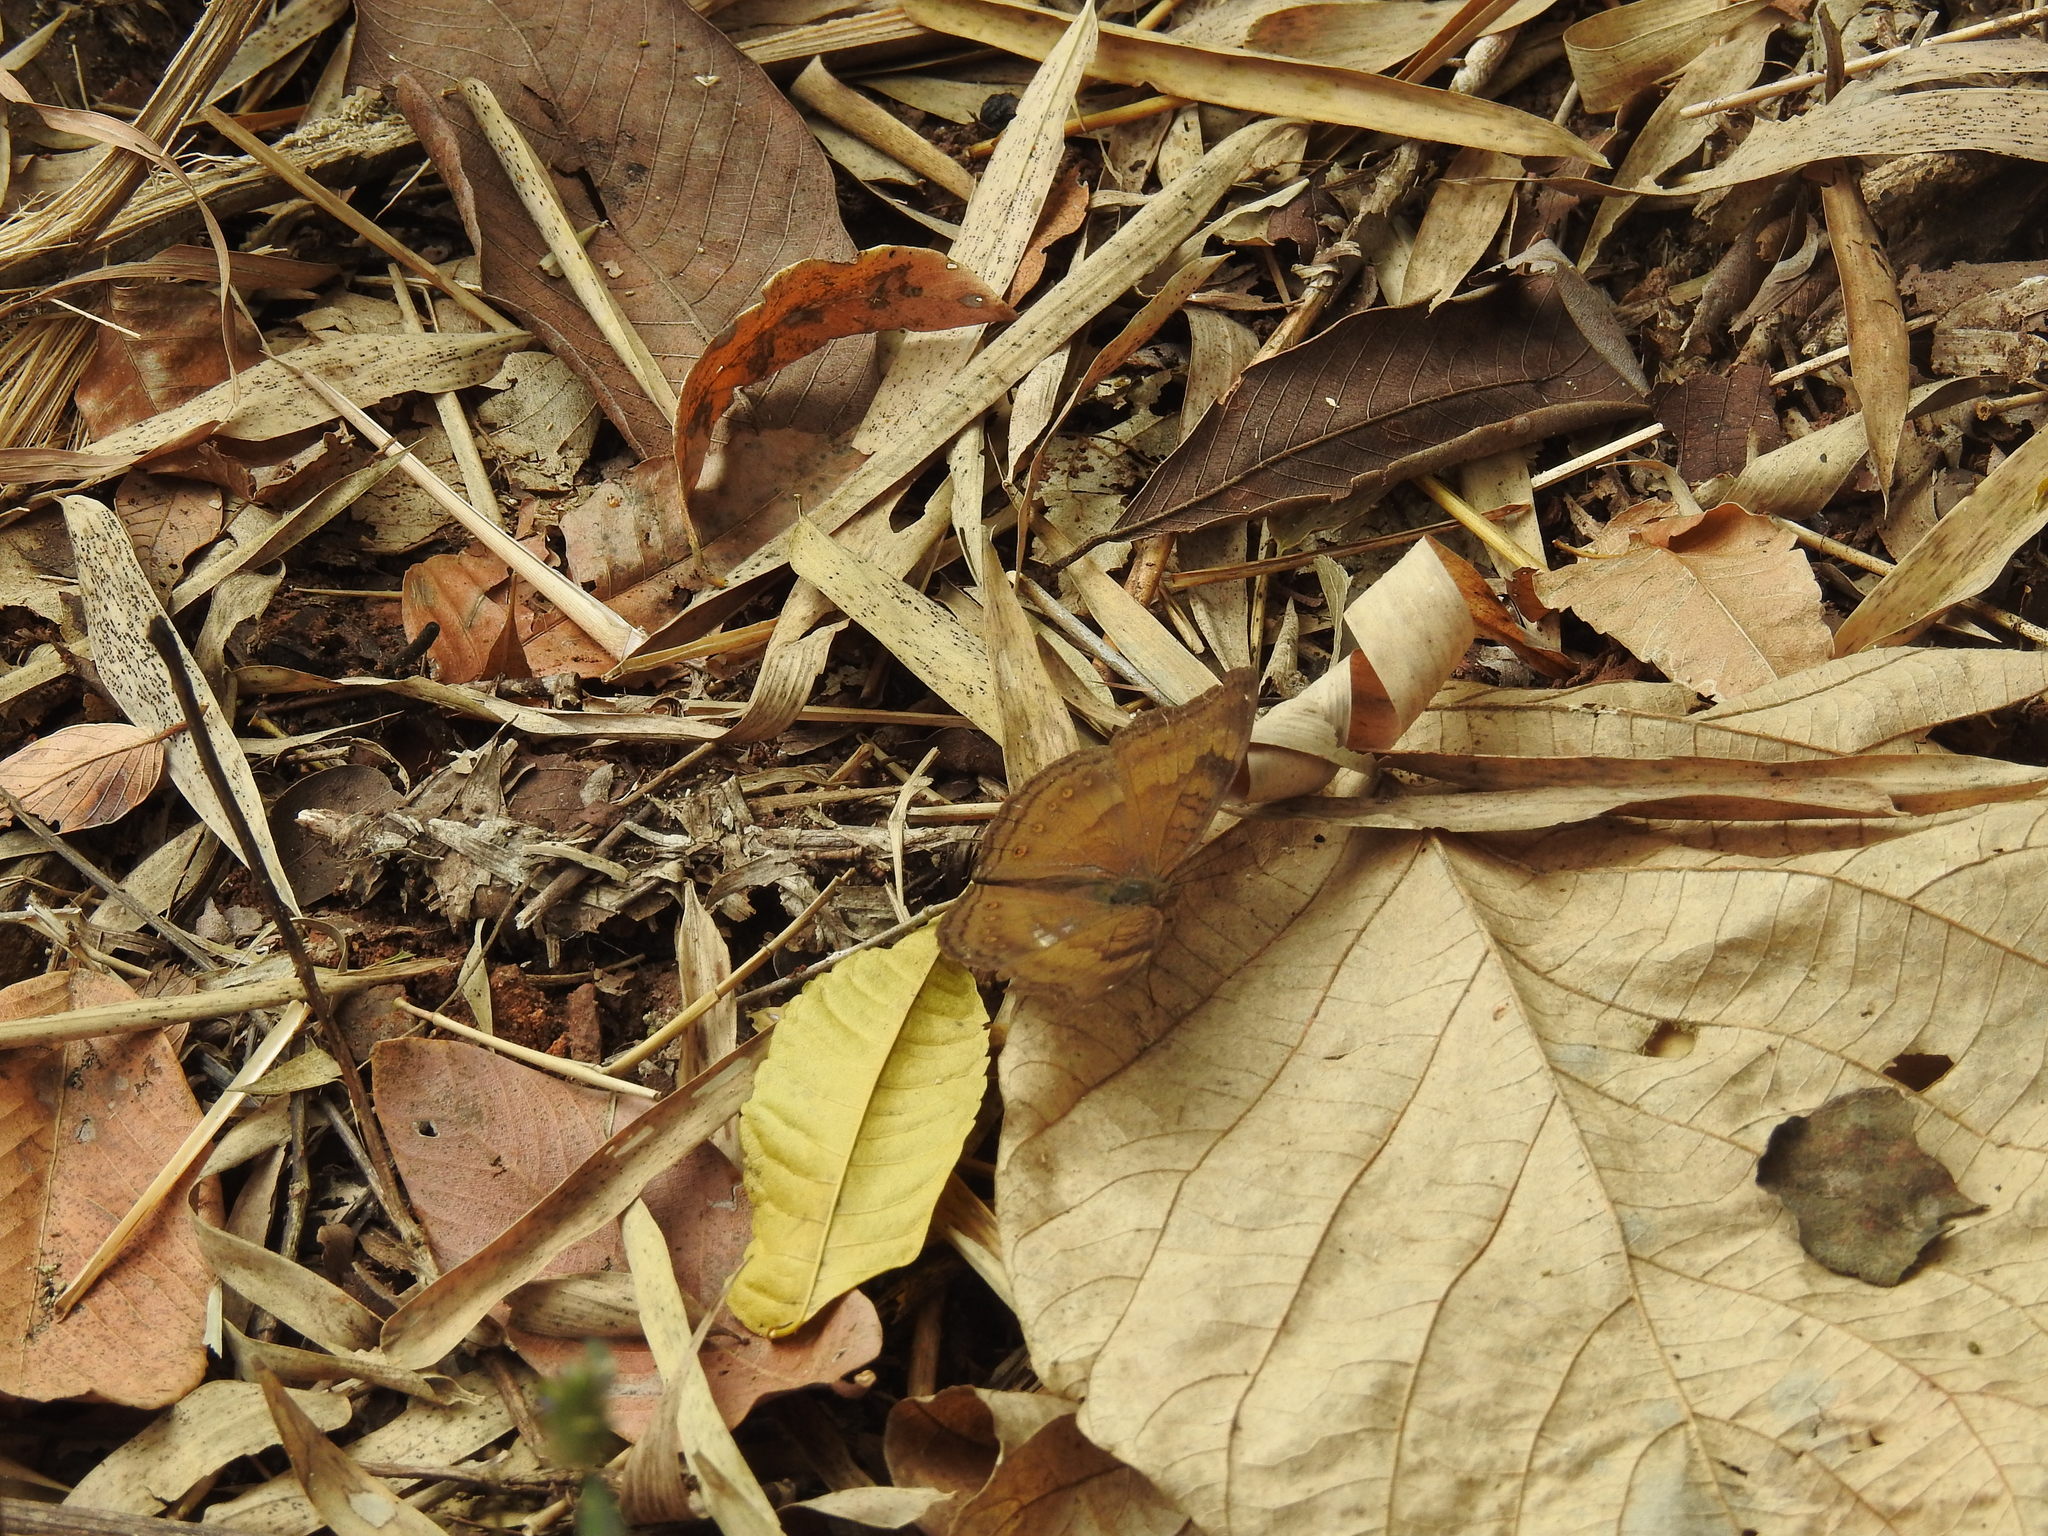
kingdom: Animalia
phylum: Arthropoda
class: Insecta
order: Lepidoptera
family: Nymphalidae
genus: Junonia
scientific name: Junonia iphita
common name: Chocolate pansy
